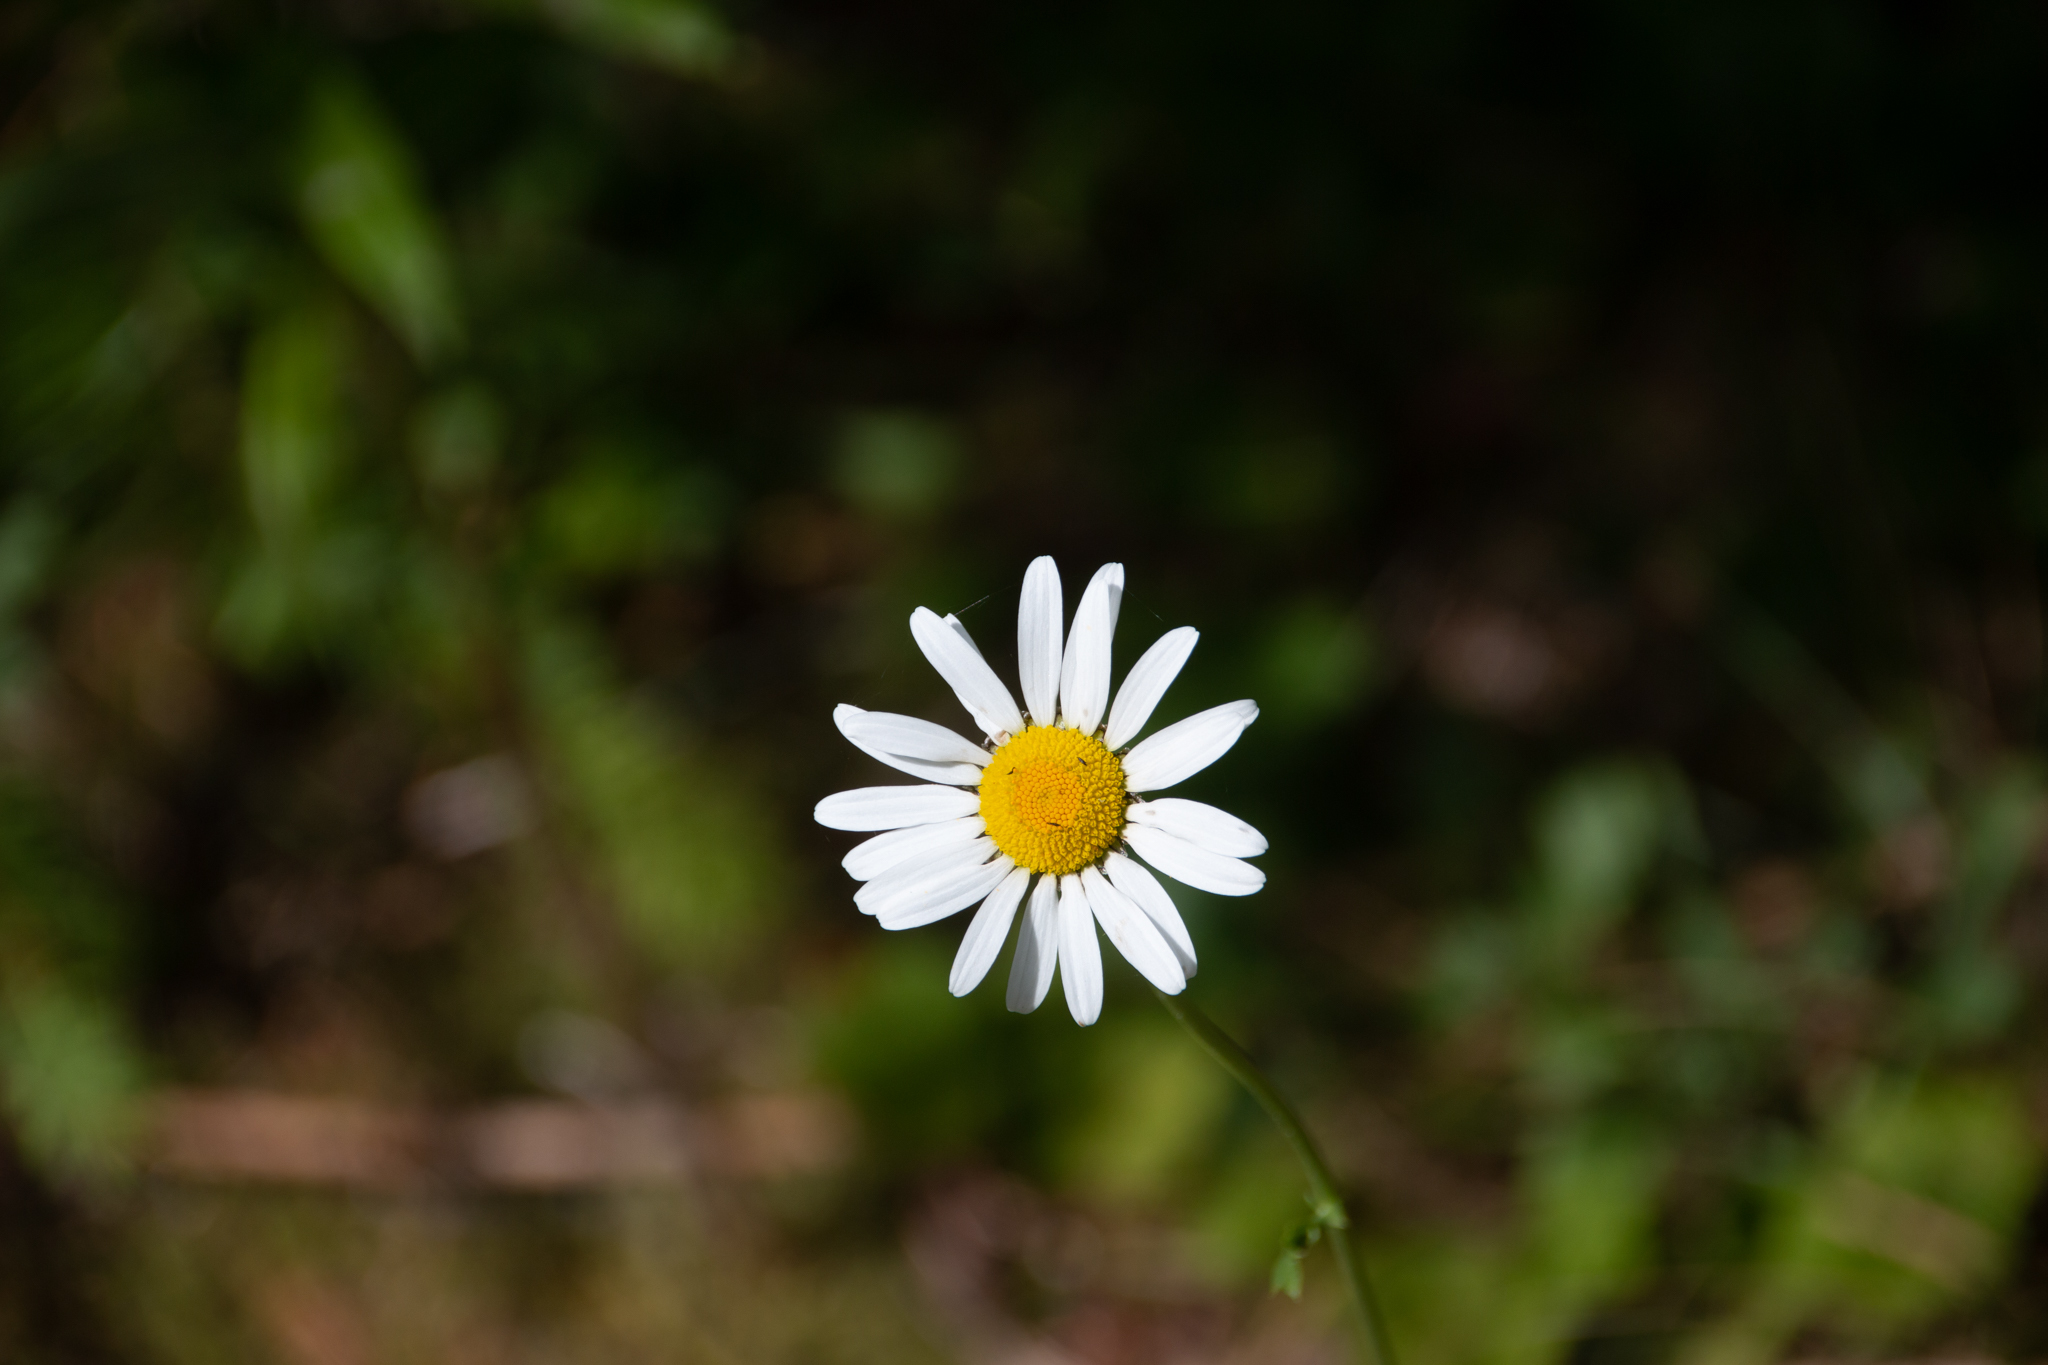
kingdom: Plantae
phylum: Tracheophyta
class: Magnoliopsida
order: Asterales
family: Asteraceae
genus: Leucanthemum
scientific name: Leucanthemum vulgare
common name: Oxeye daisy
